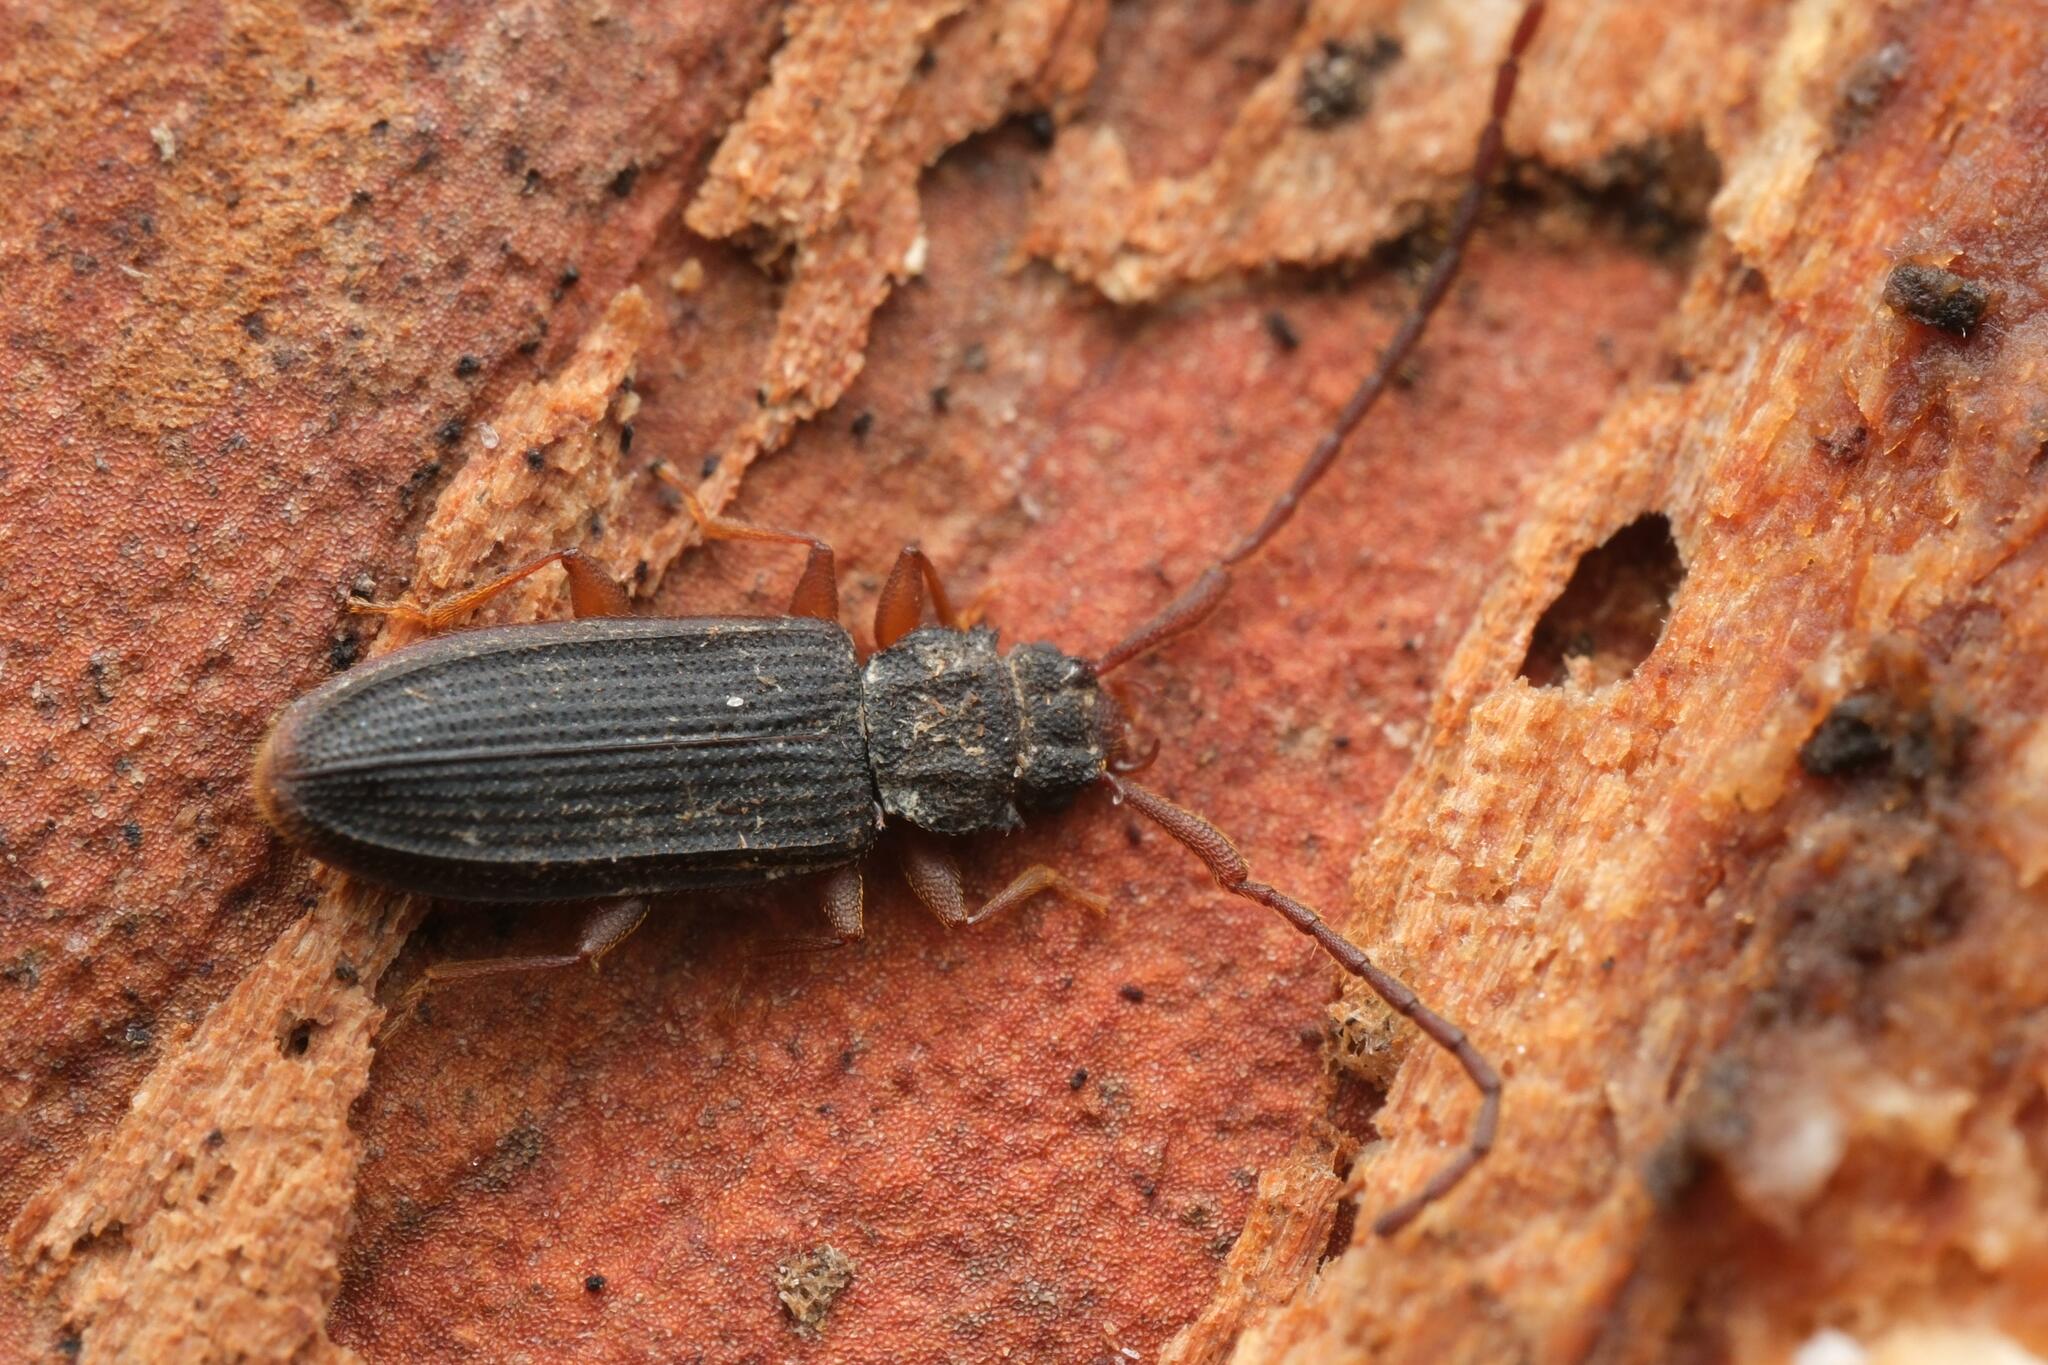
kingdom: Animalia
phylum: Arthropoda
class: Insecta
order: Coleoptera
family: Silvanidae
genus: Uleiota
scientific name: Uleiota planatus
